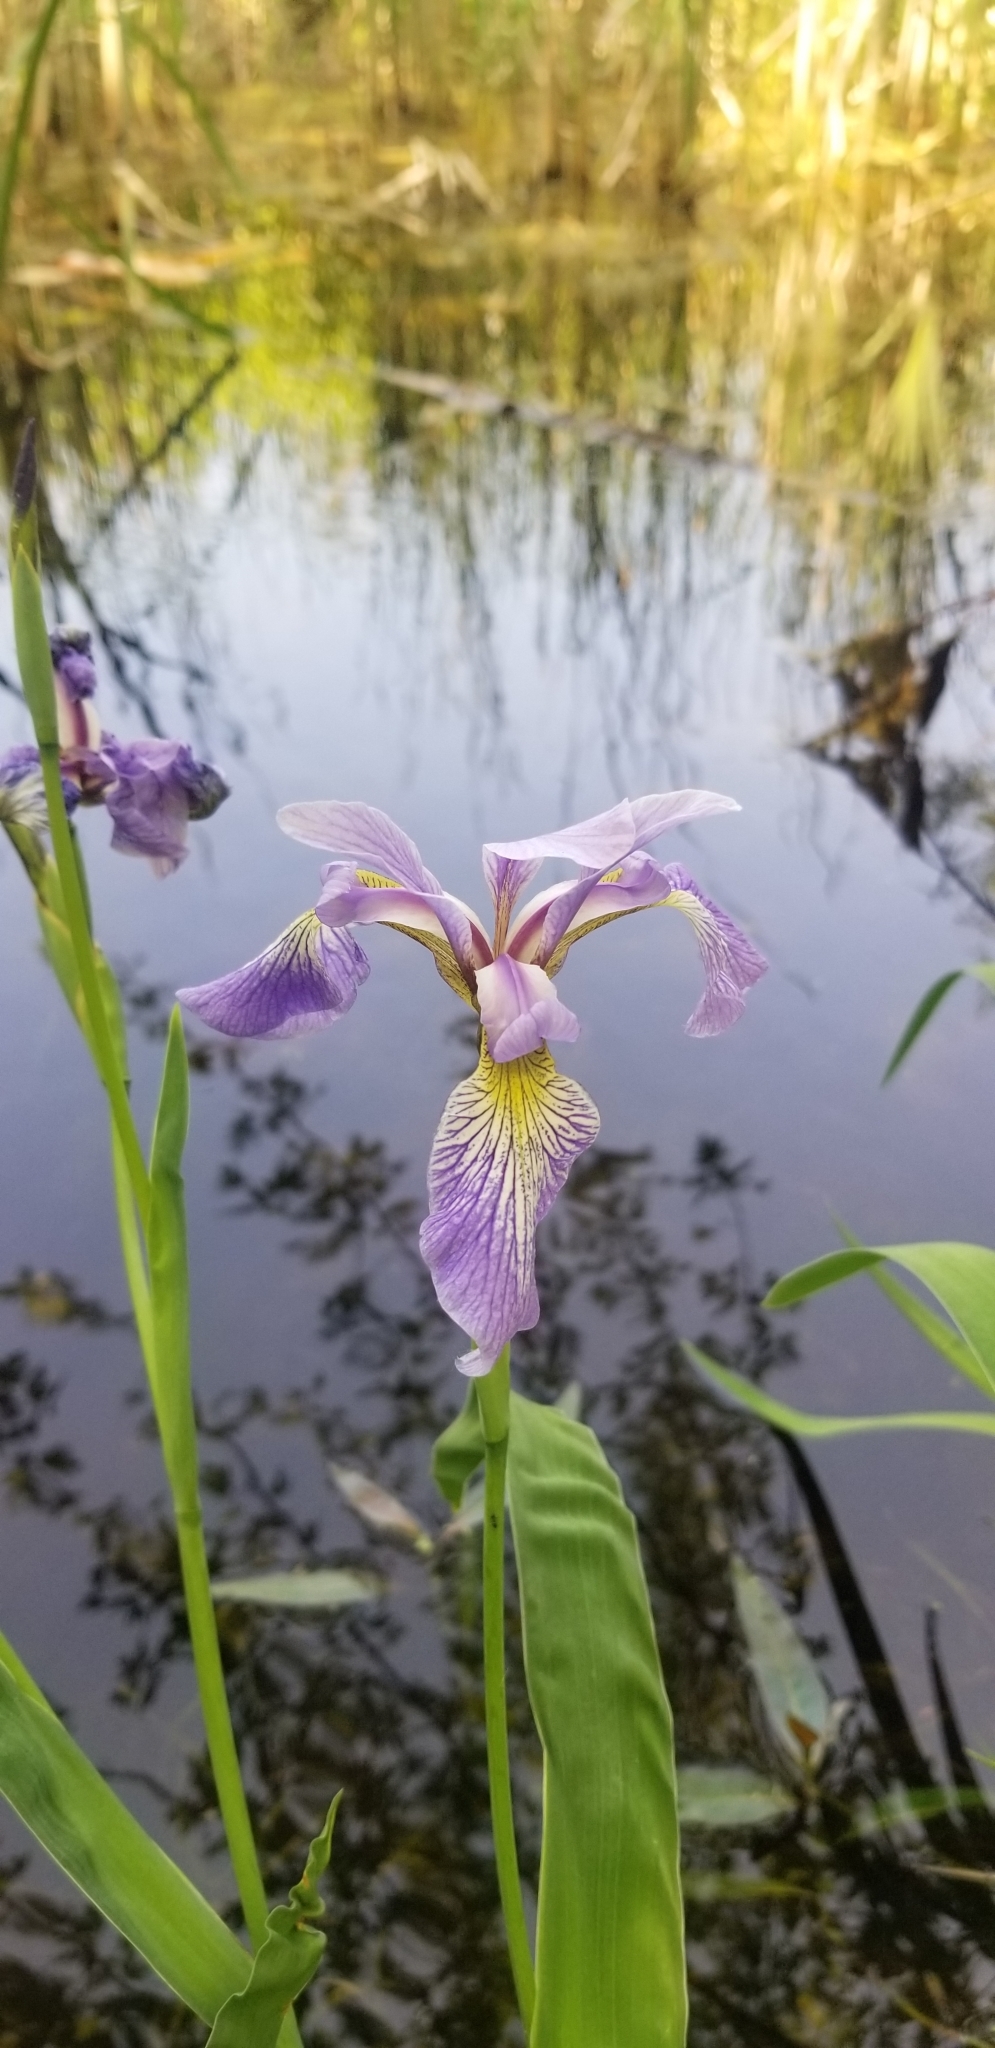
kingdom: Plantae
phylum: Tracheophyta
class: Liliopsida
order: Asparagales
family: Iridaceae
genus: Iris
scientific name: Iris versicolor
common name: Purple iris
